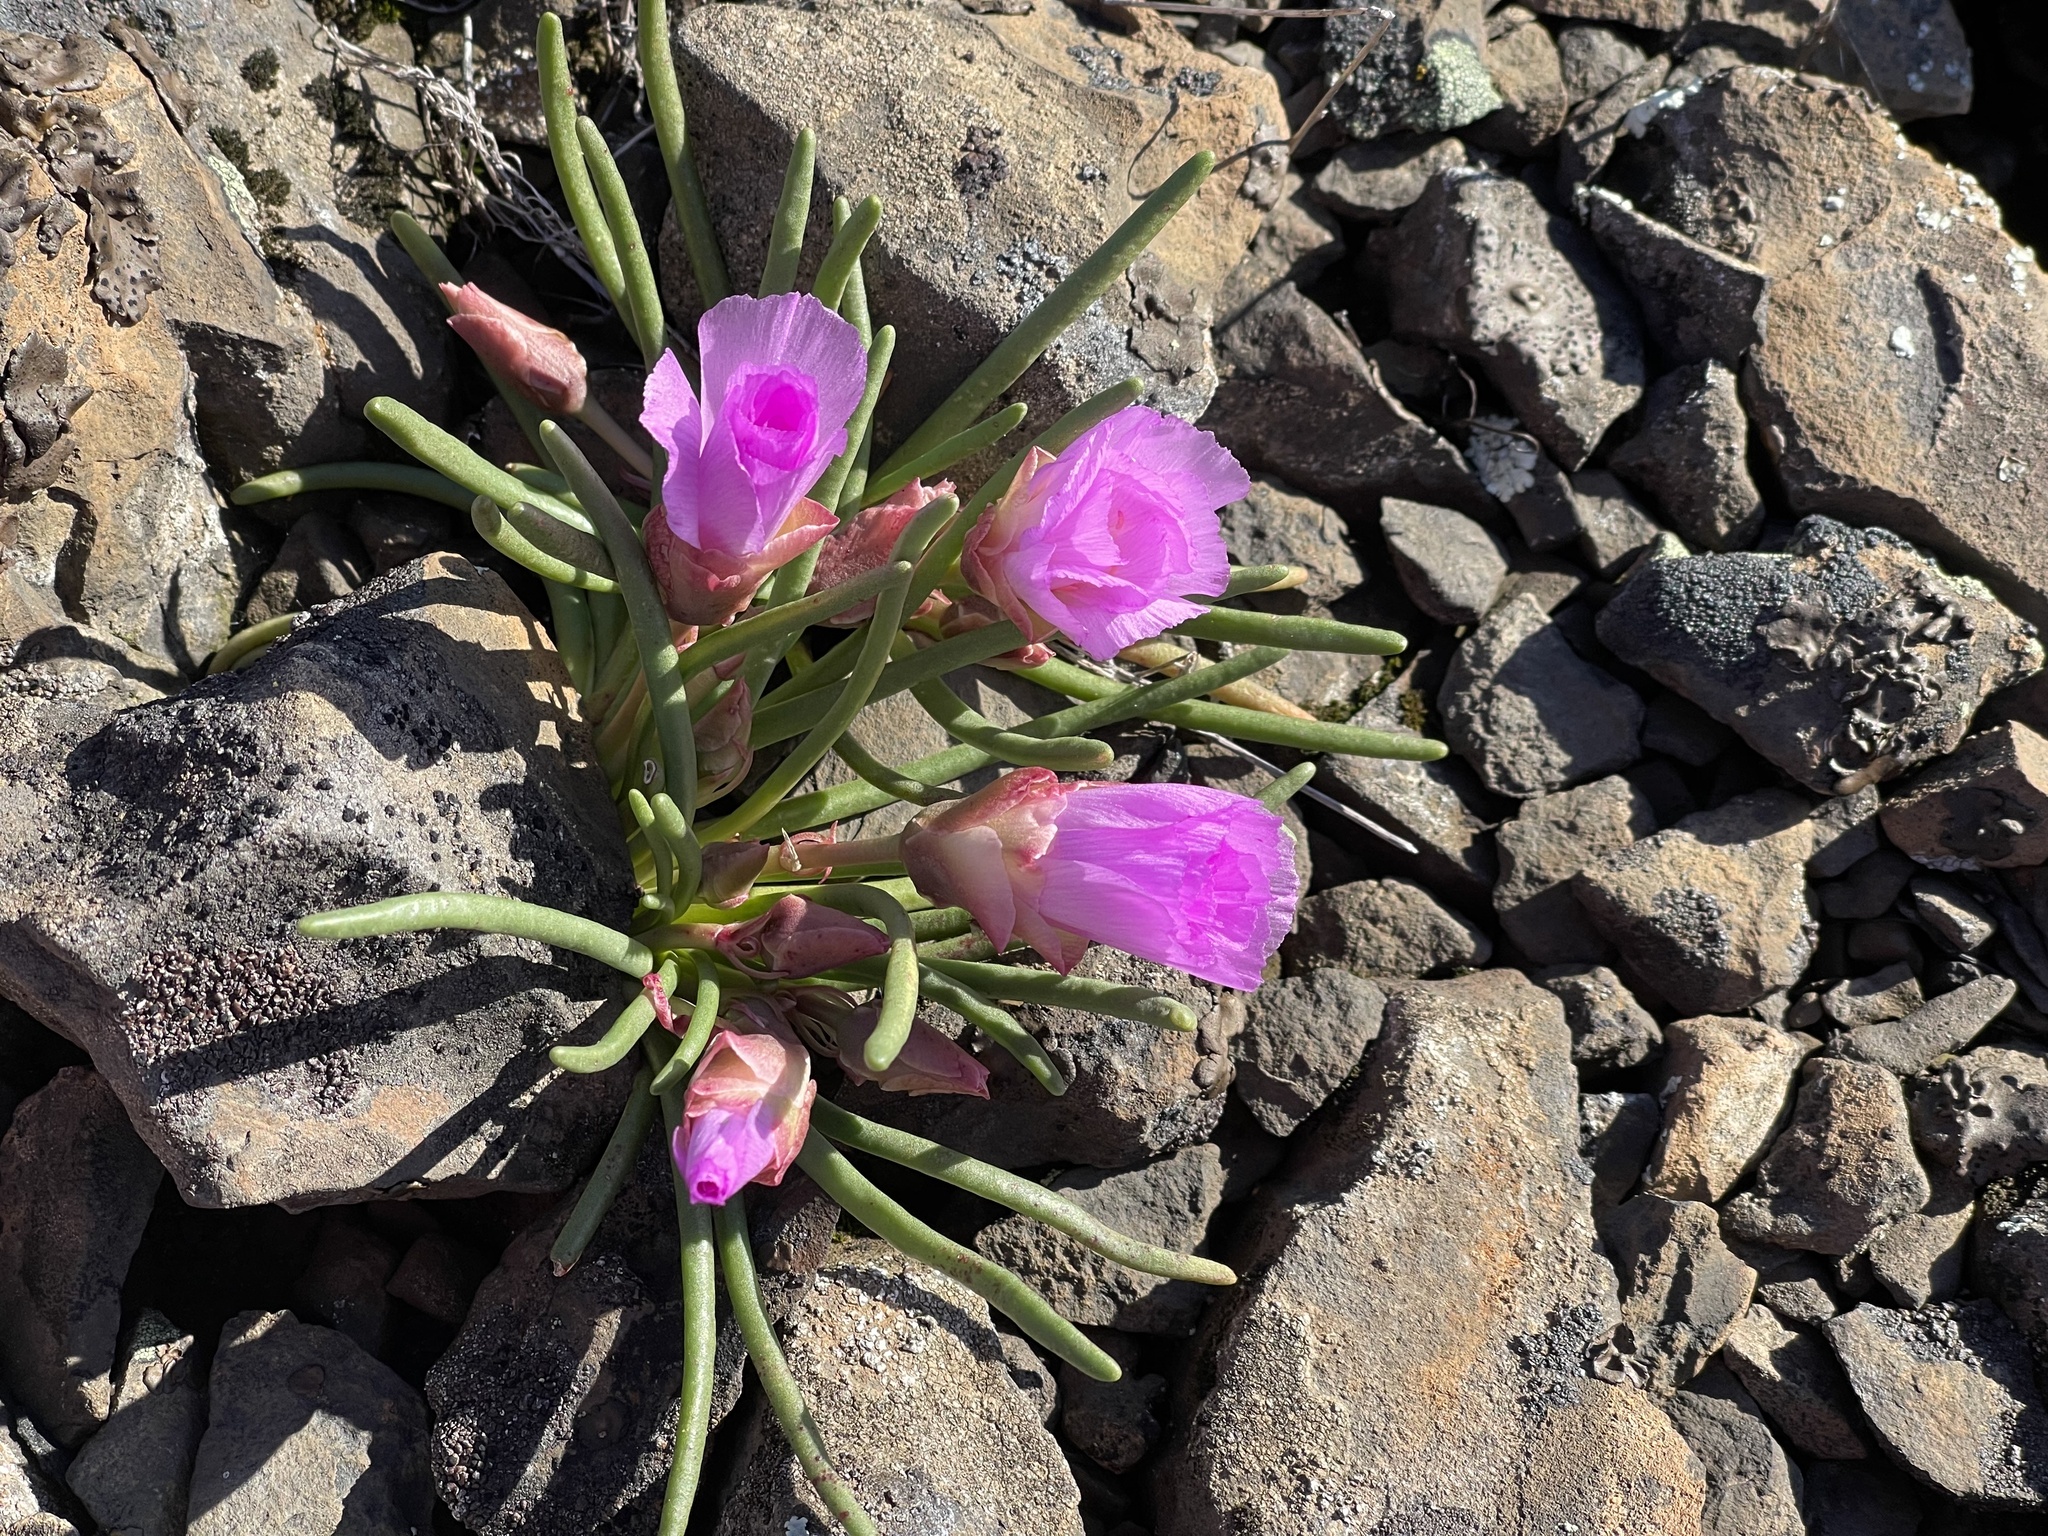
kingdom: Plantae
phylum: Tracheophyta
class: Magnoliopsida
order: Caryophyllales
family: Montiaceae
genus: Lewisia
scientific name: Lewisia rediviva
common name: Bitter-root
